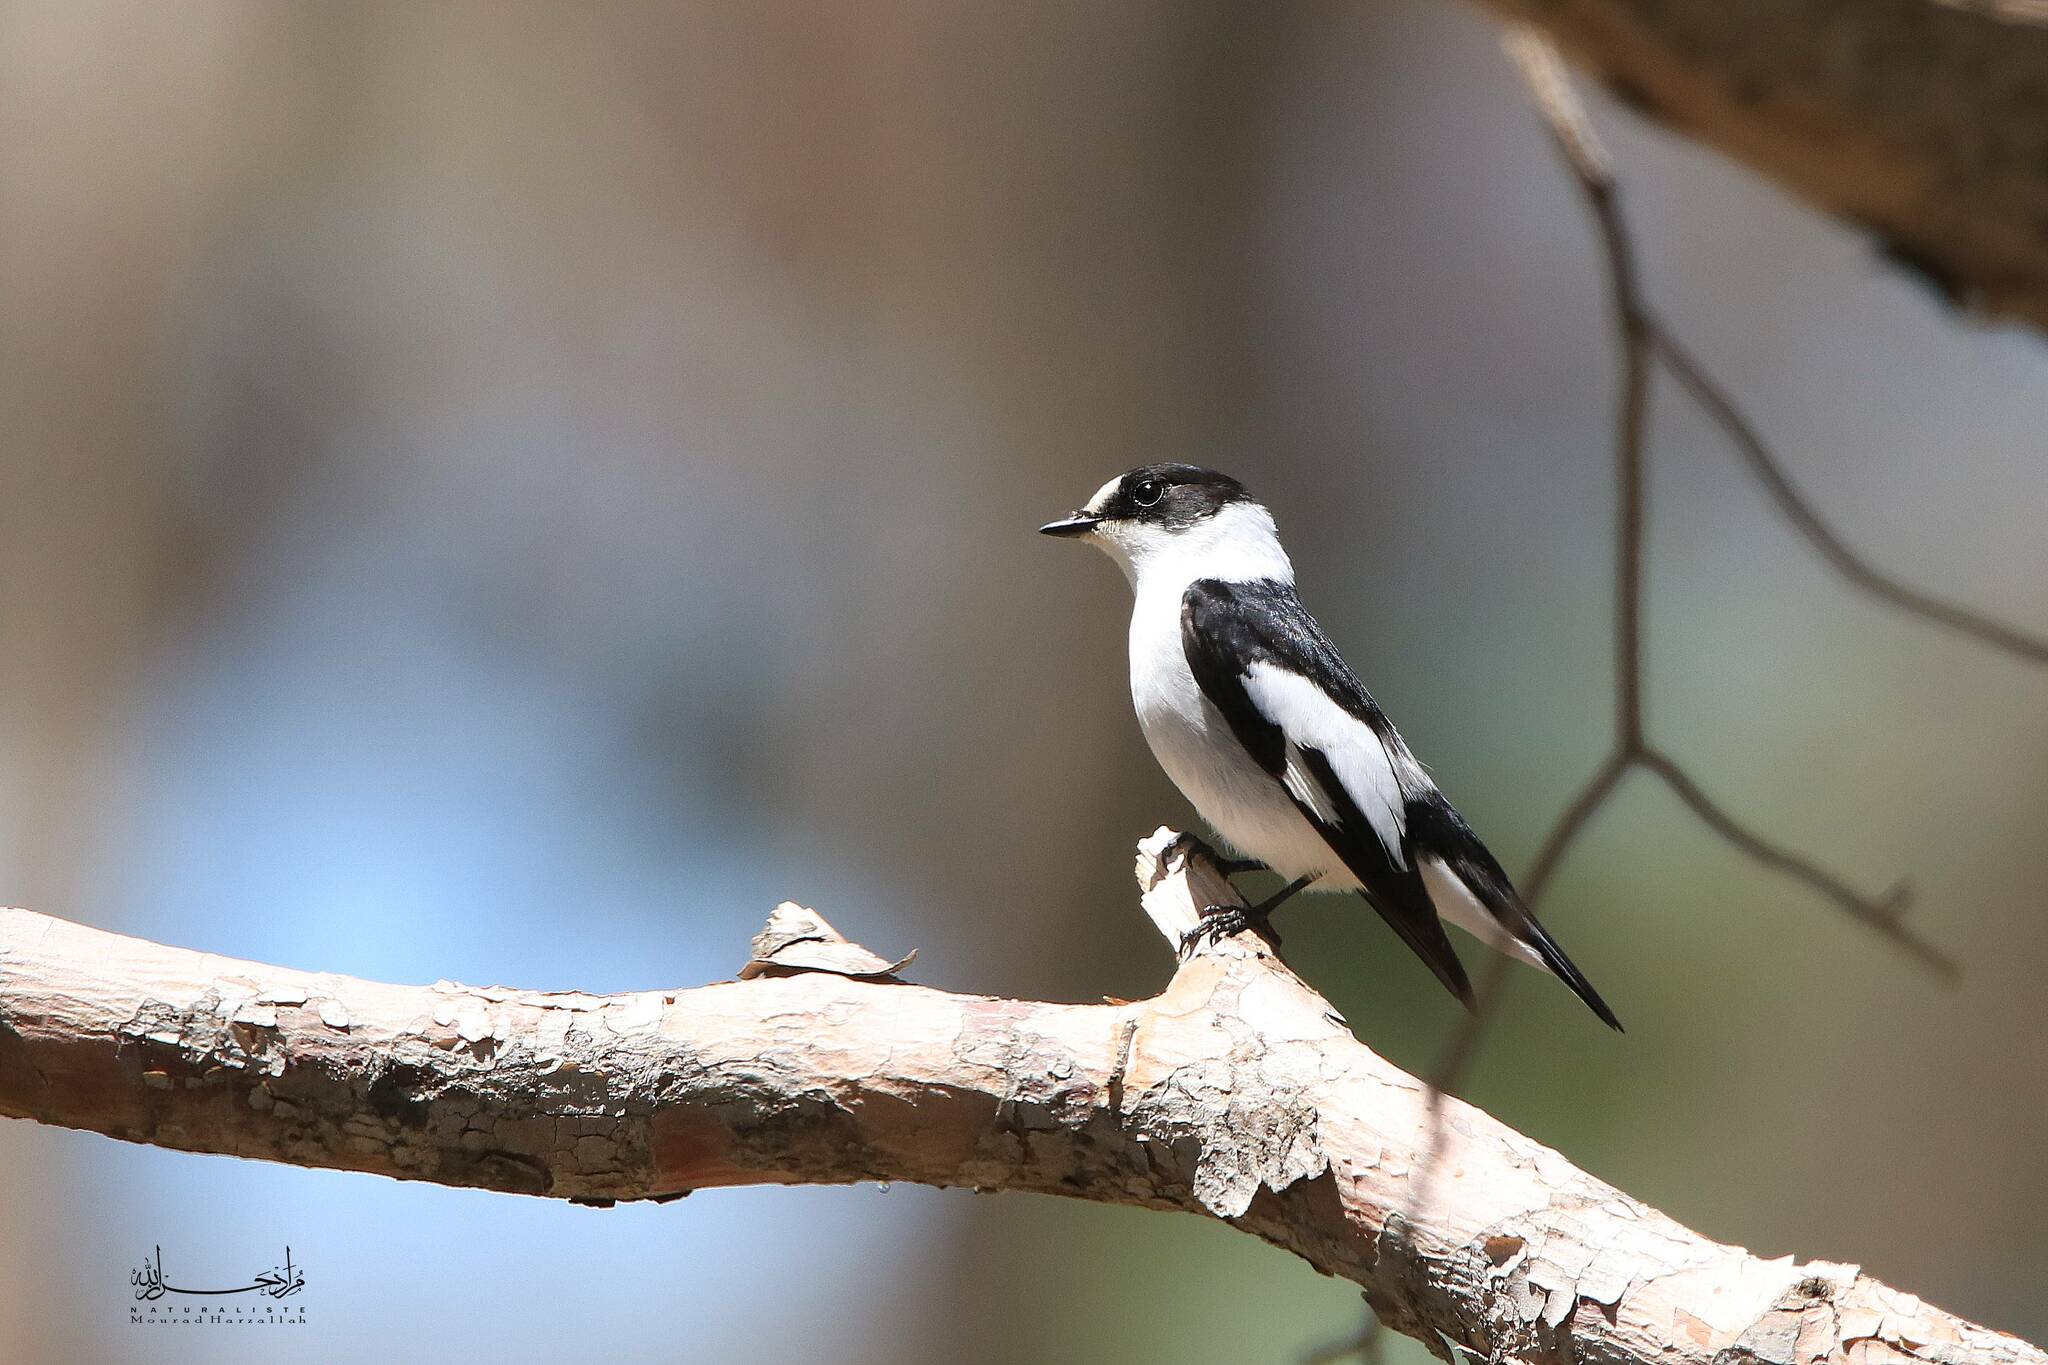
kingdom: Animalia
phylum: Chordata
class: Aves
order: Passeriformes
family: Muscicapidae
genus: Ficedula
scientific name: Ficedula albicollis
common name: Collared flycatcher
